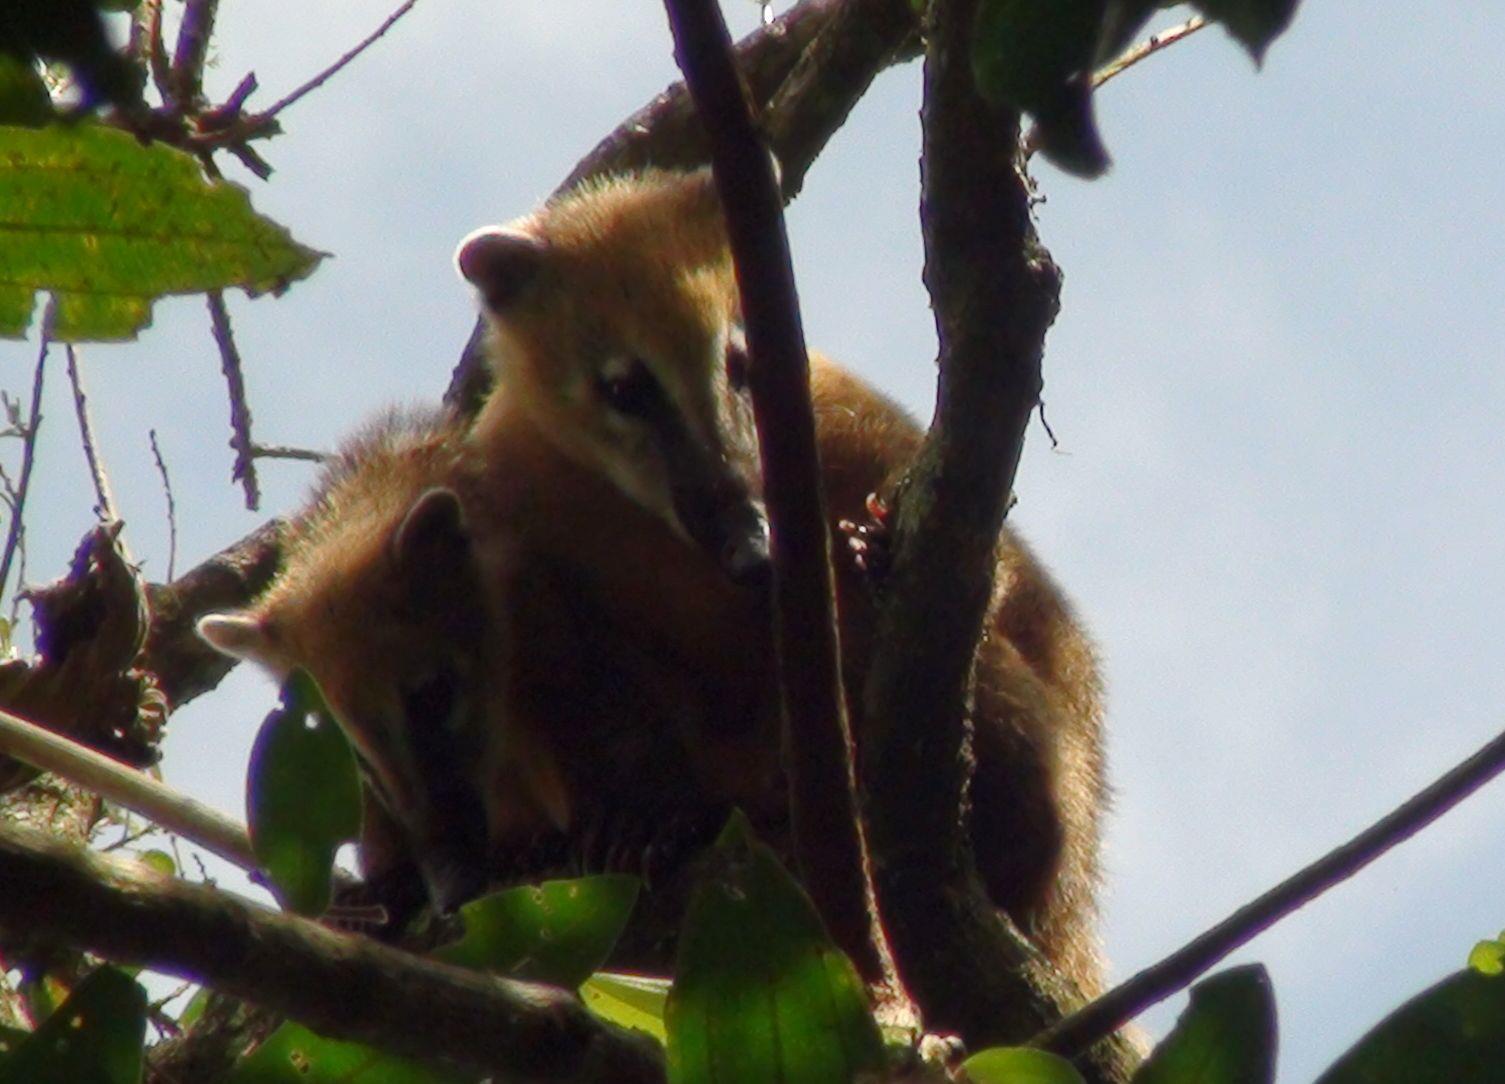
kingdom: Animalia
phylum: Chordata
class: Mammalia
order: Carnivora
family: Procyonidae
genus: Nasua
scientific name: Nasua nasua
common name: South american coati
